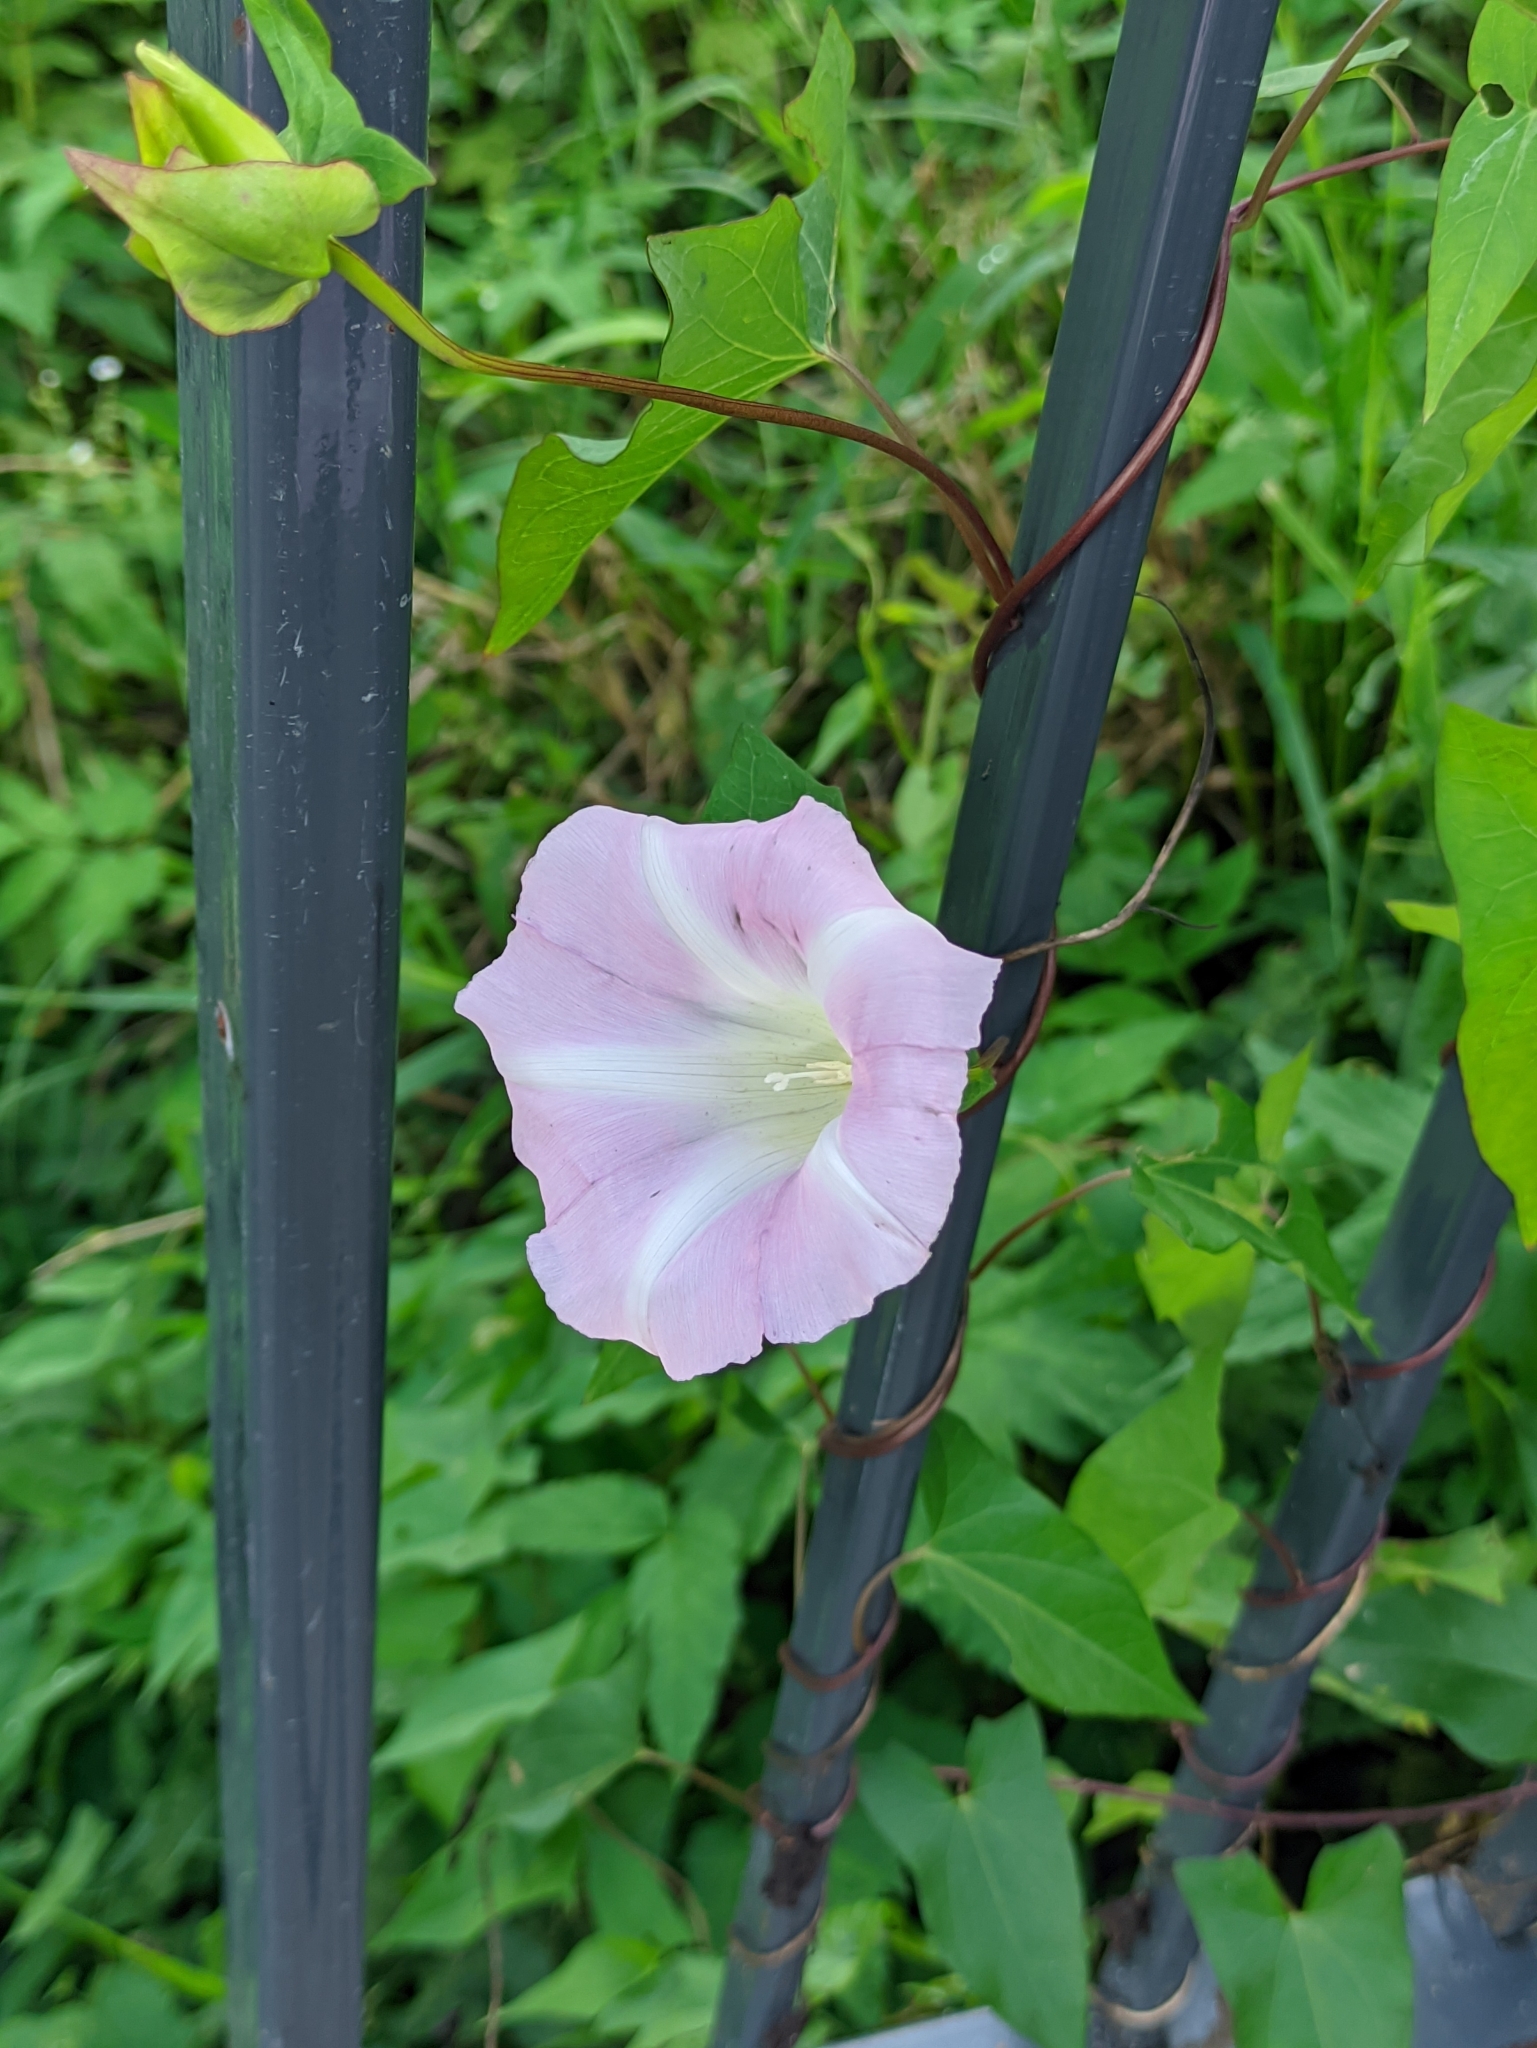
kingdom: Plantae
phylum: Tracheophyta
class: Magnoliopsida
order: Solanales
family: Convolvulaceae
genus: Calystegia
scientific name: Calystegia sepium
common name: Hedge bindweed
